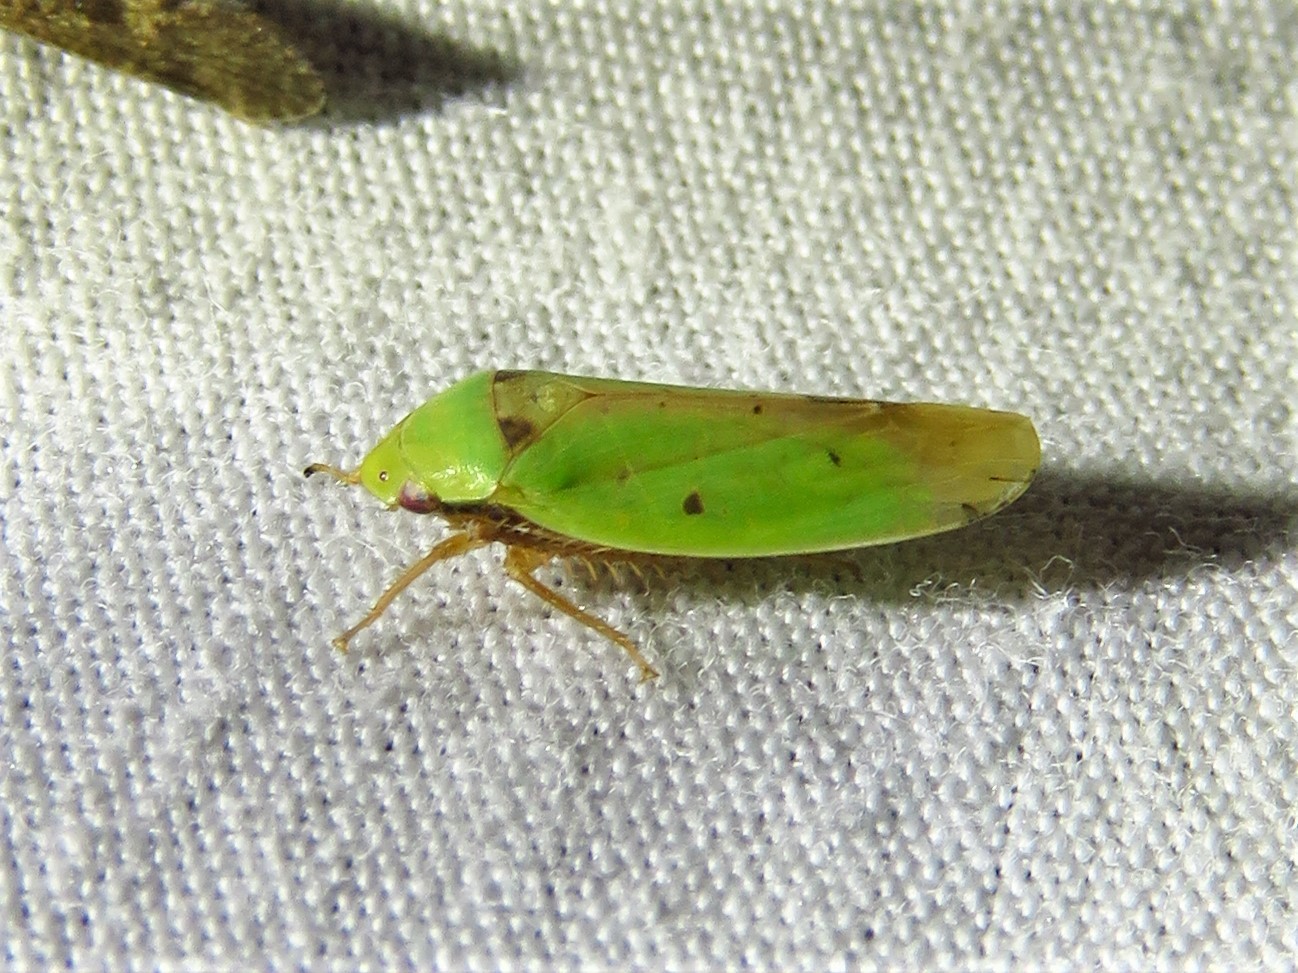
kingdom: Animalia
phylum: Arthropoda
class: Insecta
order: Hemiptera
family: Cicadellidae
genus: Ponana
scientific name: Ponana
